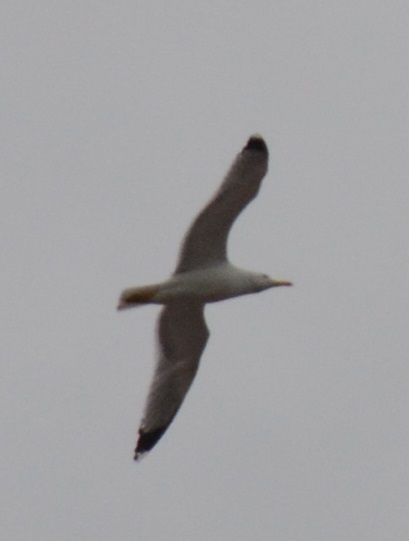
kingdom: Animalia
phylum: Chordata
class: Aves
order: Charadriiformes
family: Laridae
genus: Larus
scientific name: Larus michahellis
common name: Yellow-legged gull
